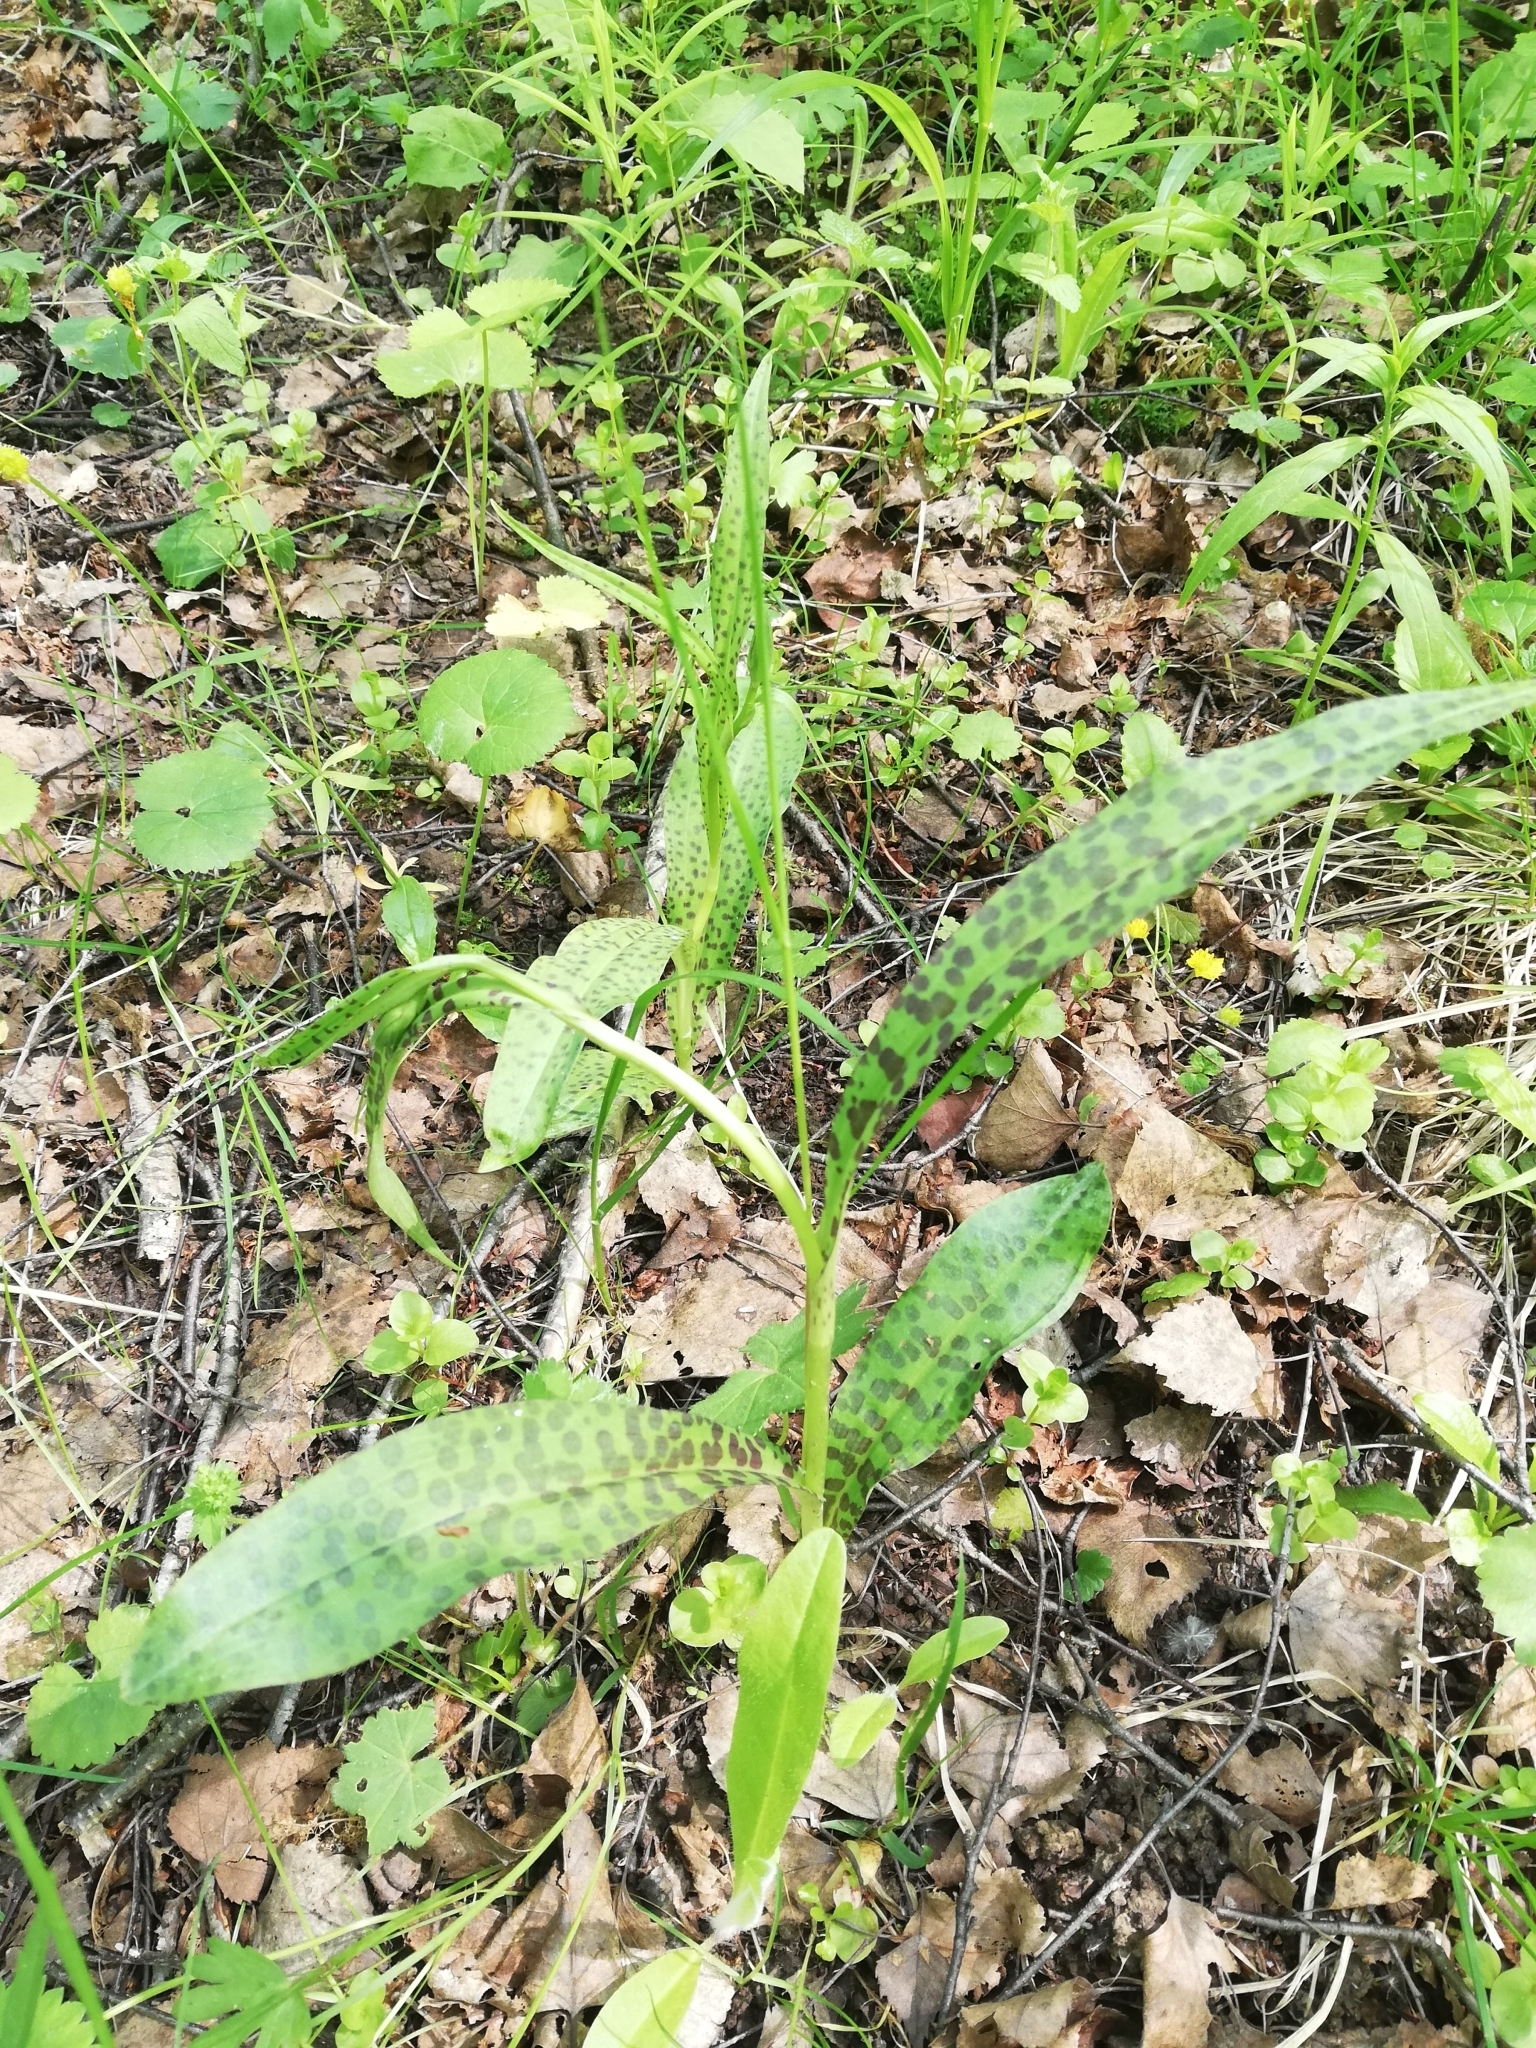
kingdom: Plantae
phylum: Tracheophyta
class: Liliopsida
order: Asparagales
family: Orchidaceae
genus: Dactylorhiza
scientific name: Dactylorhiza maculata
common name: Heath spotted-orchid
